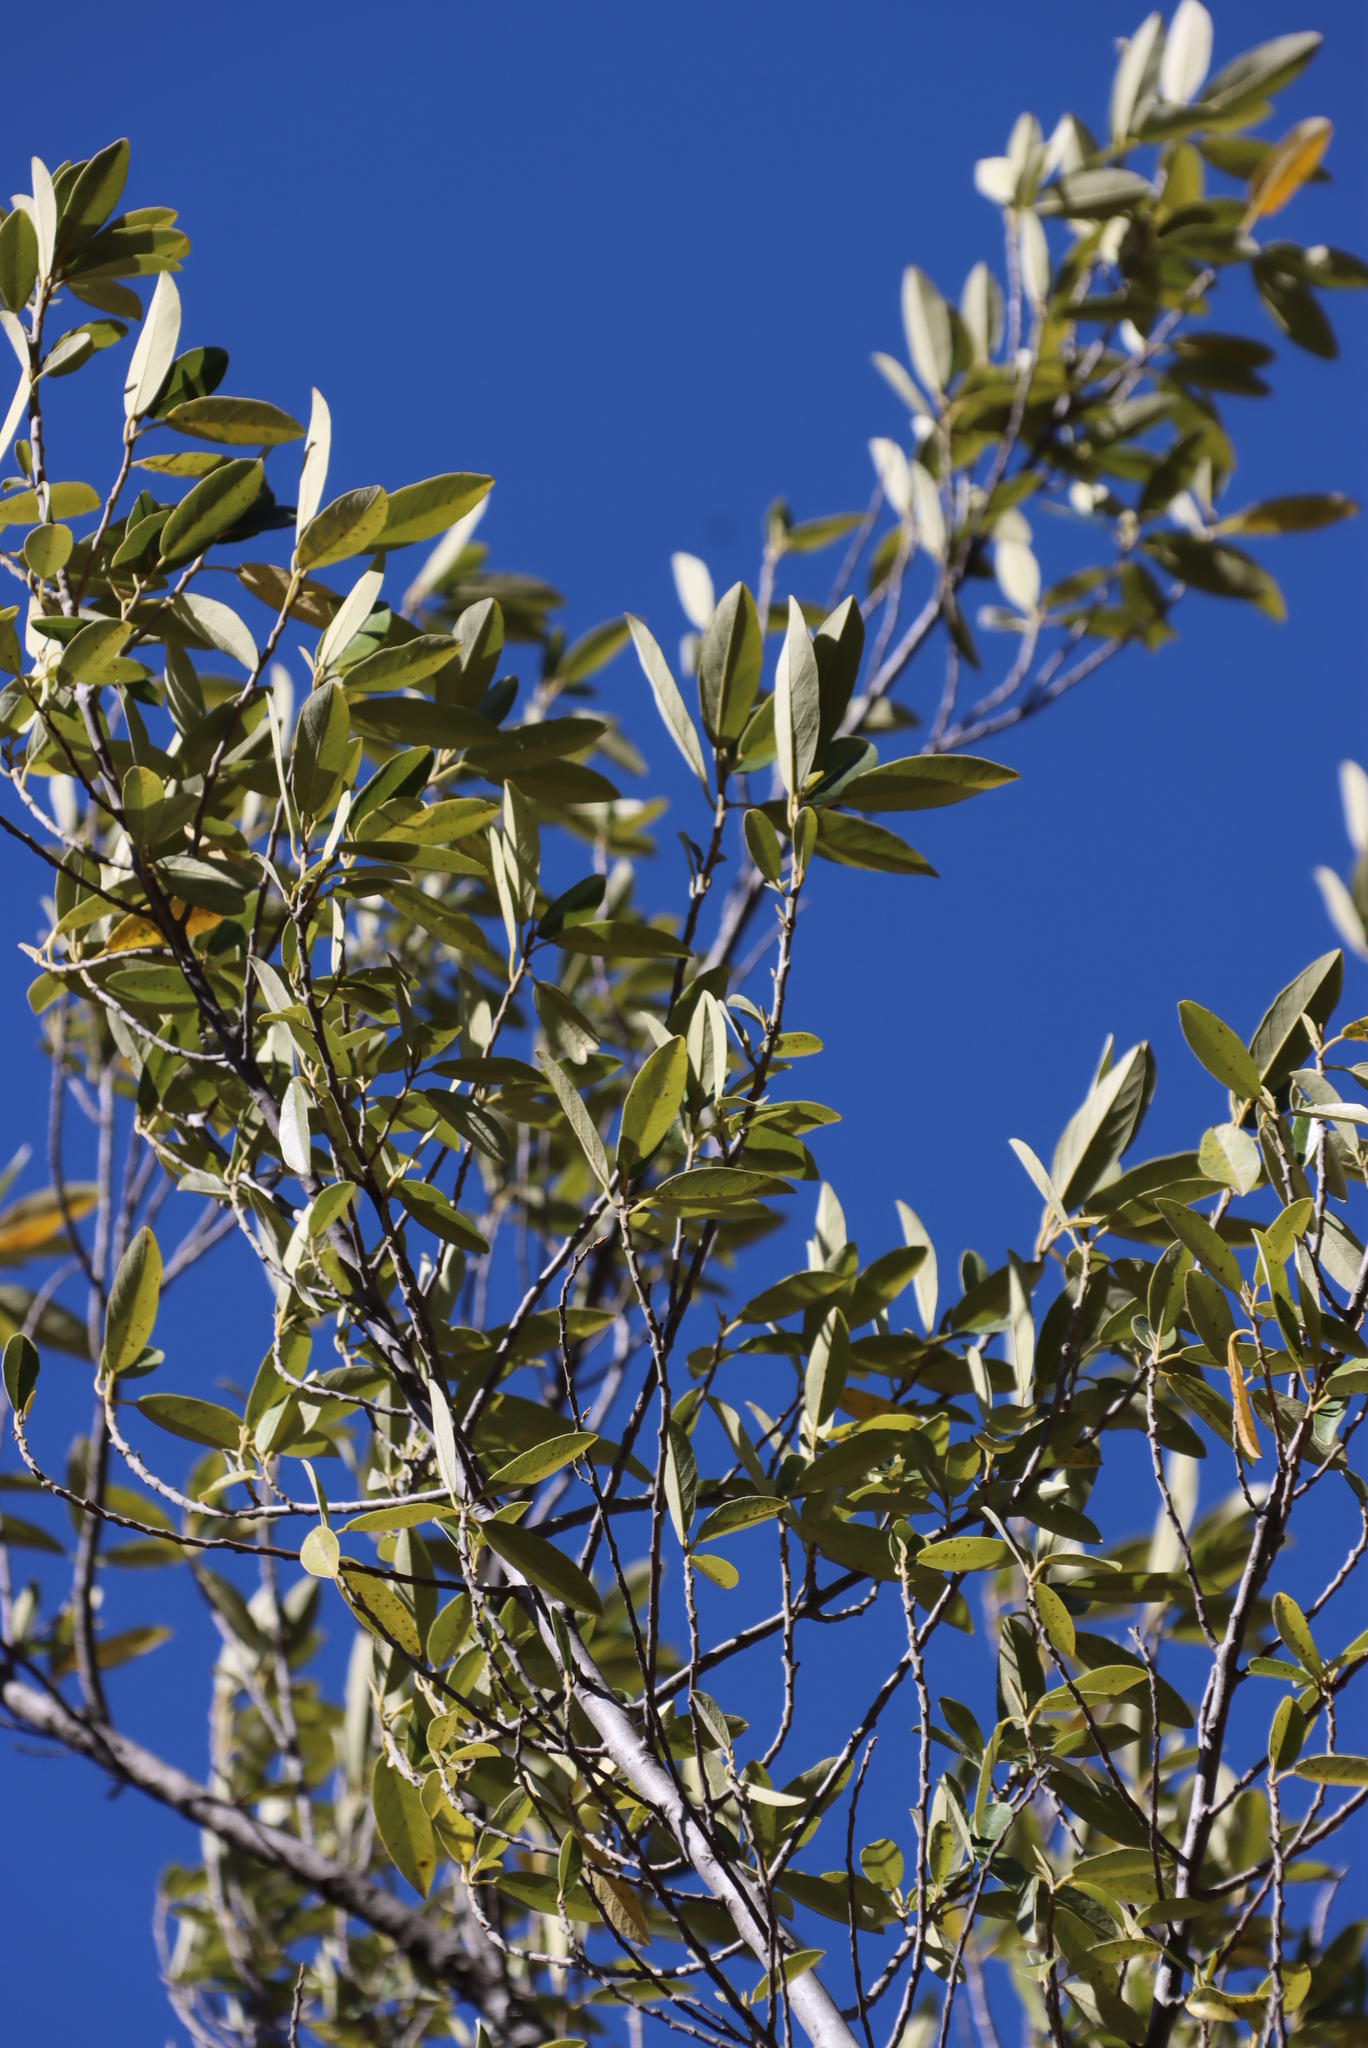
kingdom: Plantae
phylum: Tracheophyta
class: Magnoliopsida
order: Malpighiales
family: Achariaceae
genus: Kiggelaria
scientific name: Kiggelaria africana
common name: Wild peach
